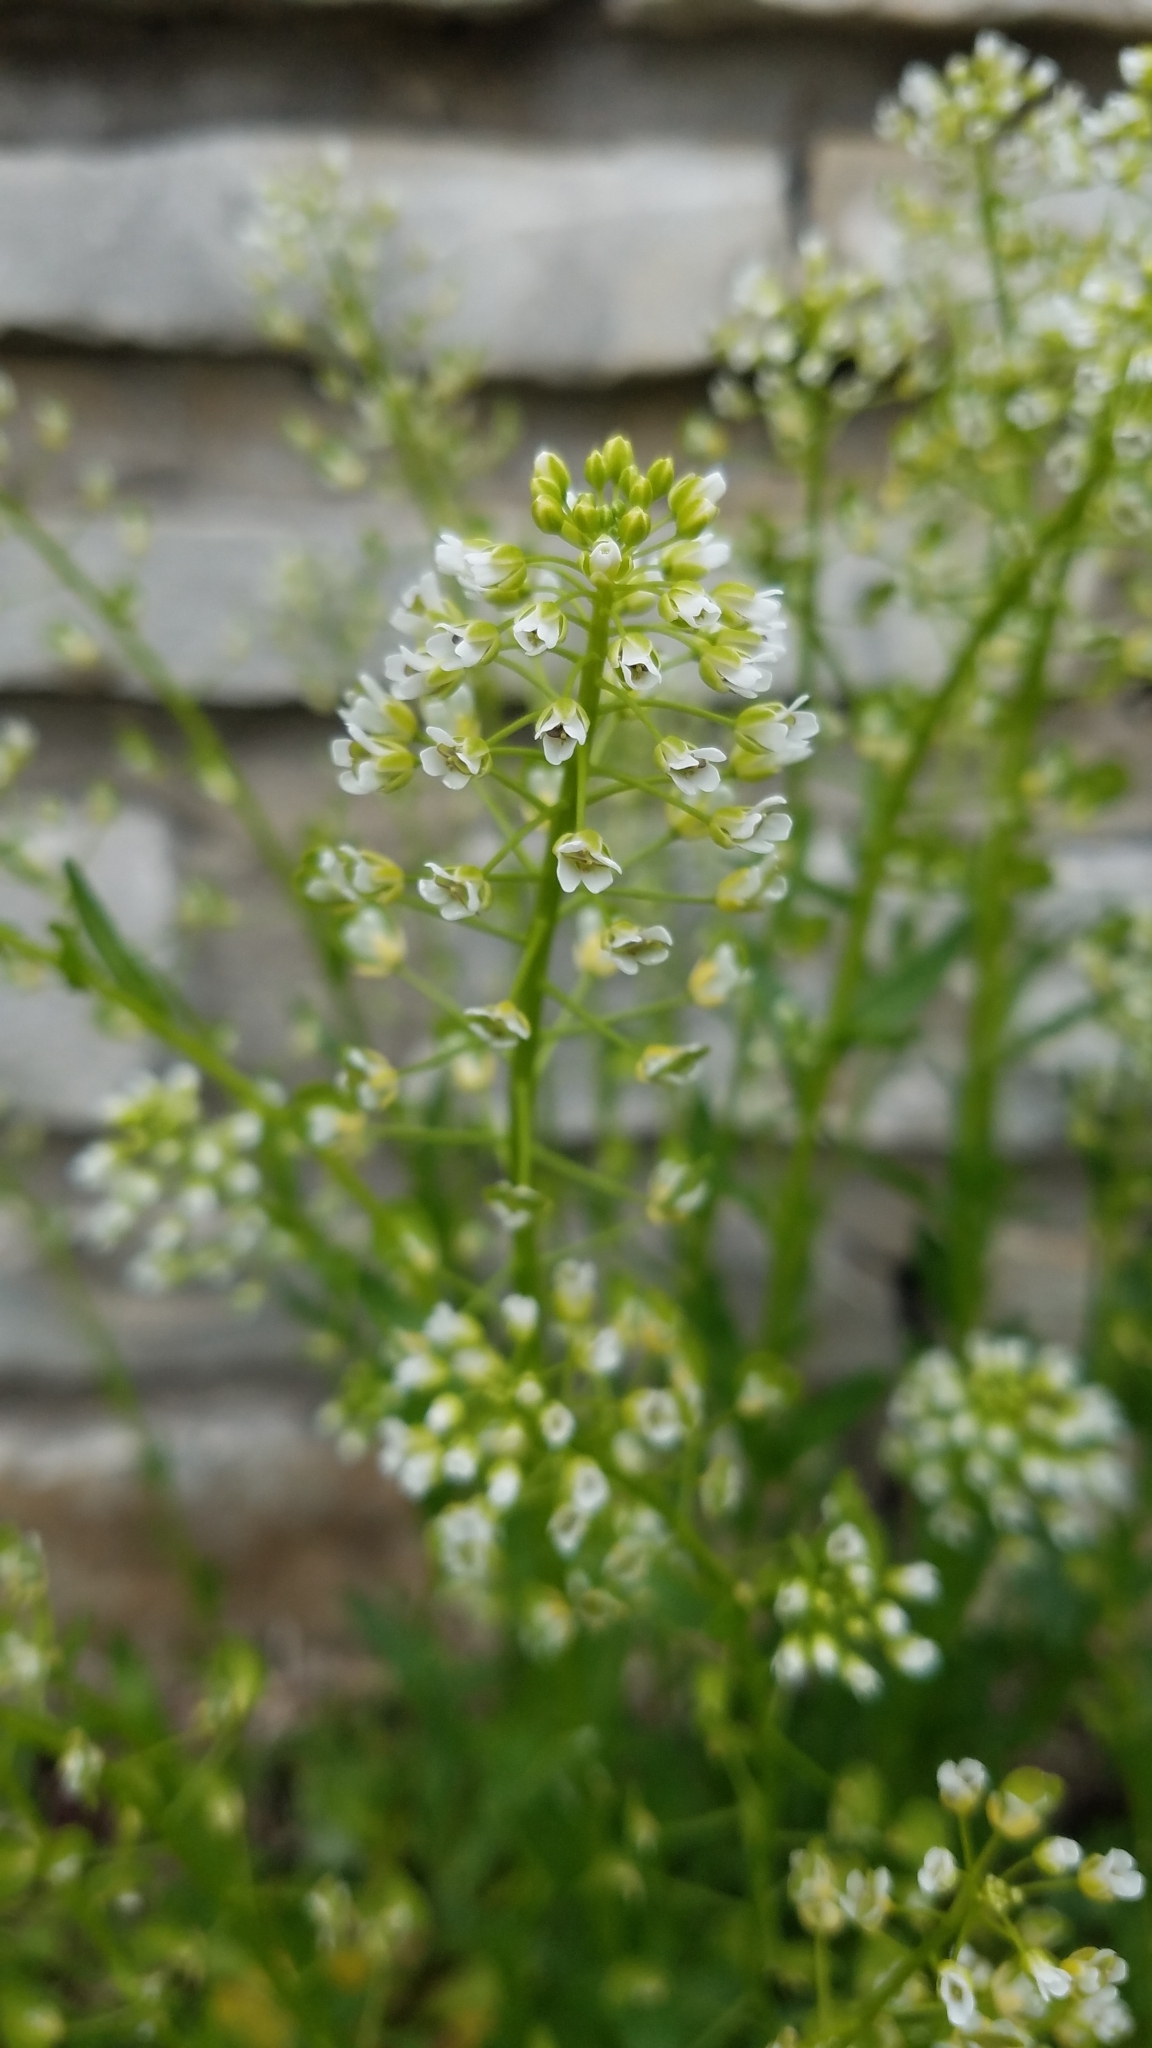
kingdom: Plantae
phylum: Tracheophyta
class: Magnoliopsida
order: Brassicales
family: Brassicaceae
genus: Thlaspi
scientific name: Thlaspi arvense
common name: Field pennycress
